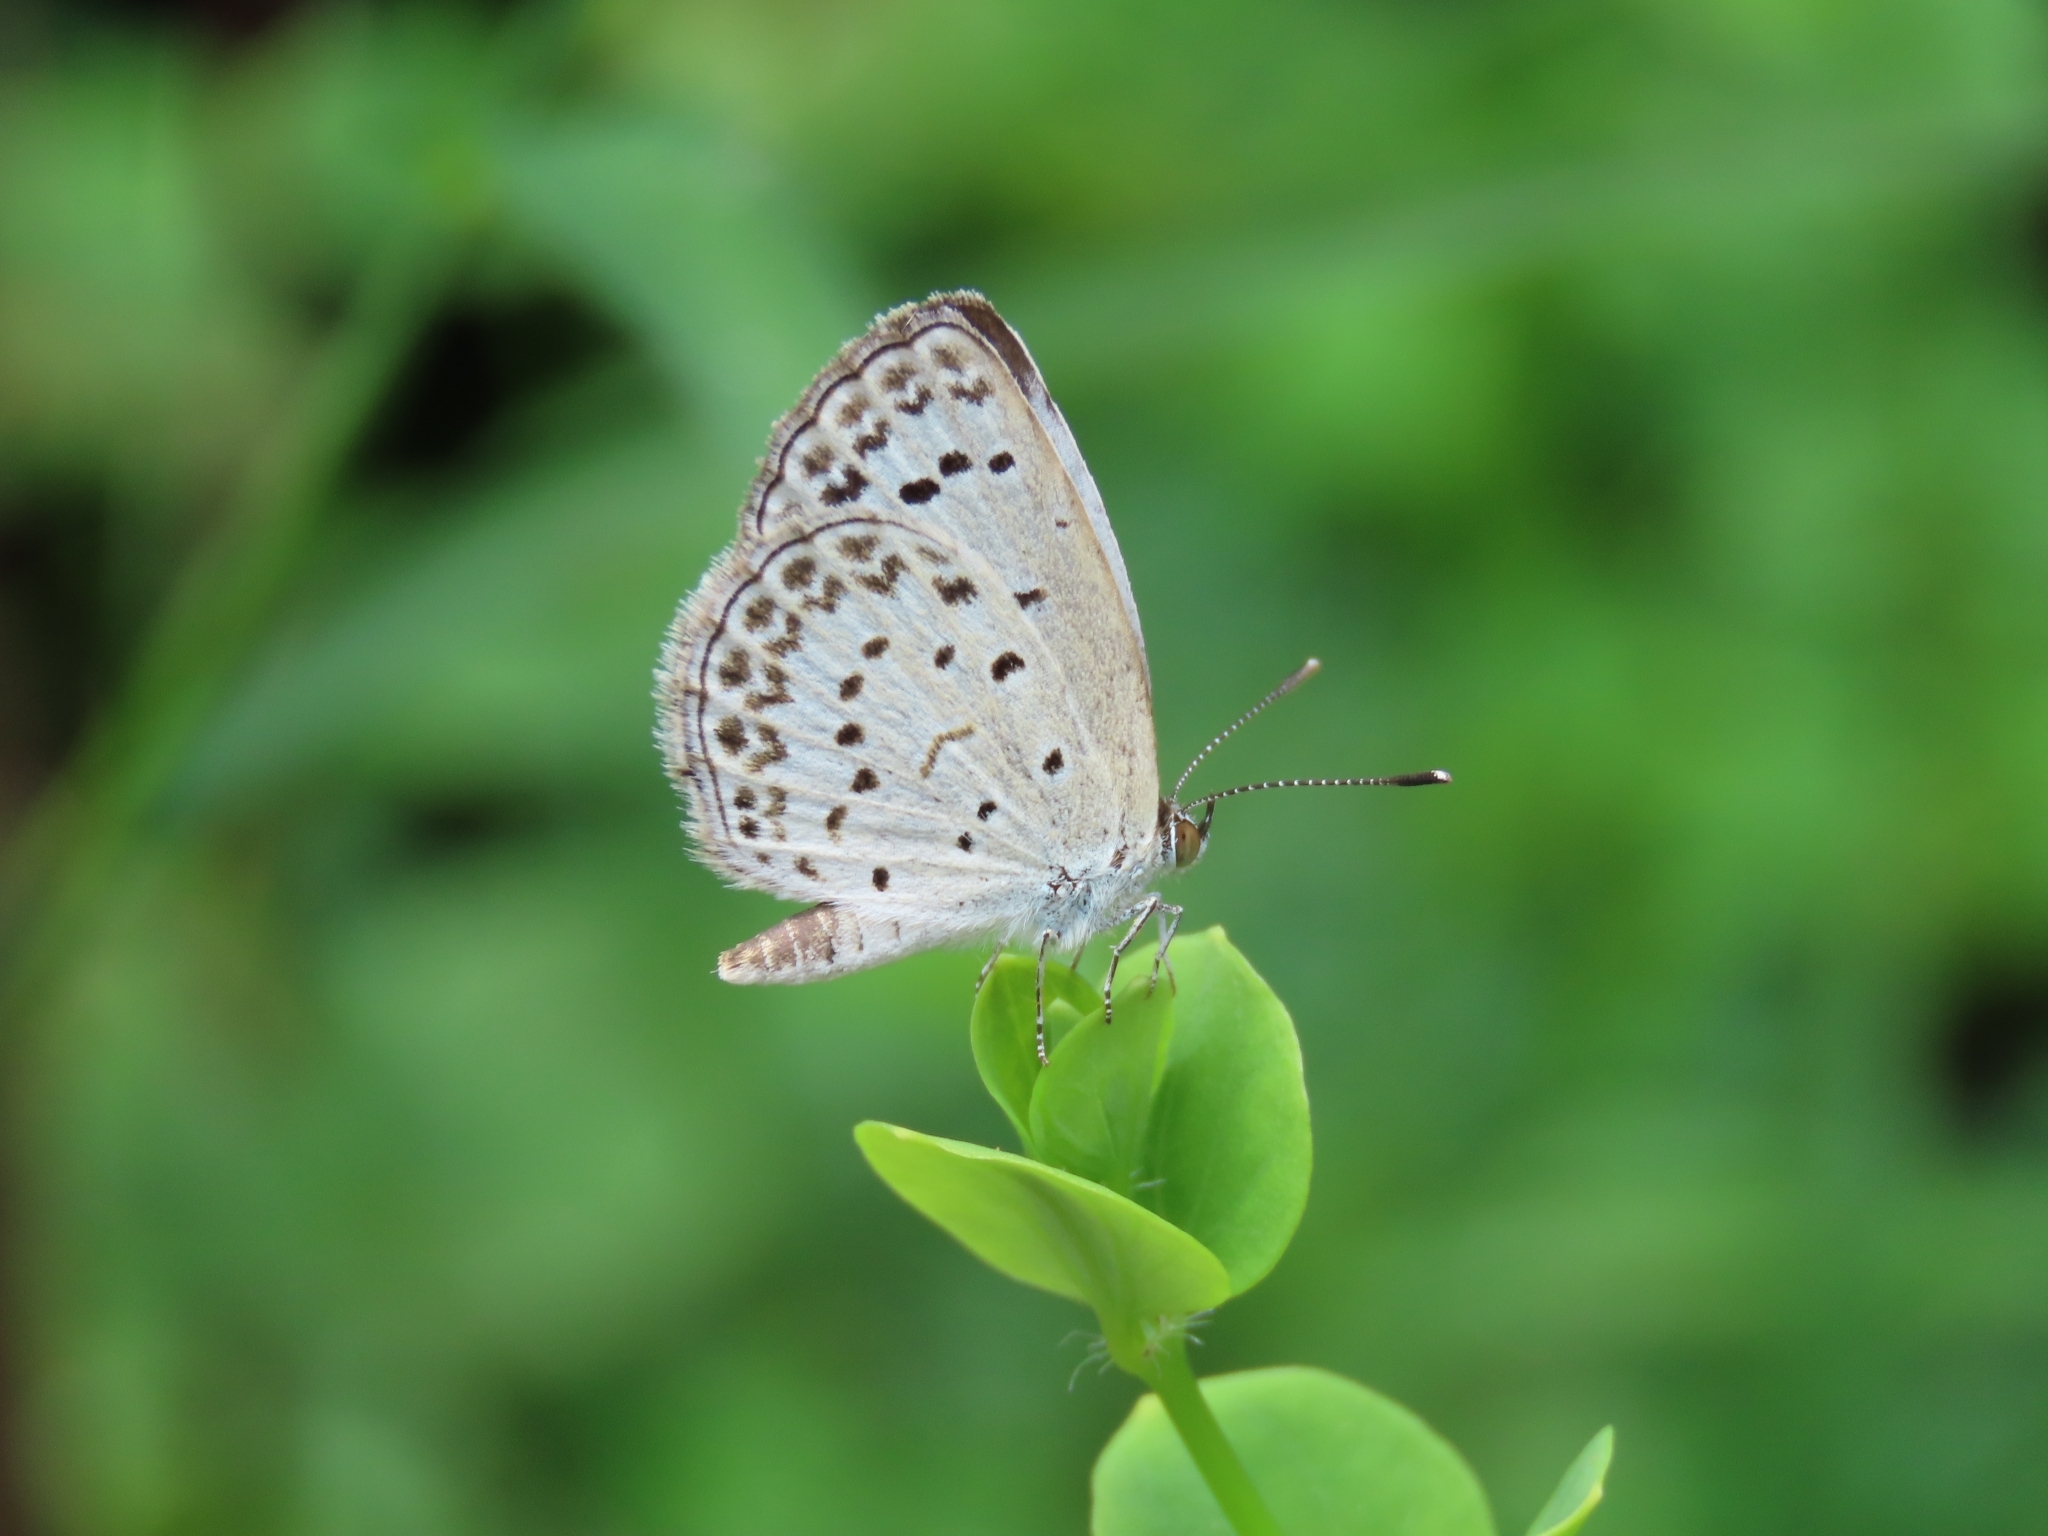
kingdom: Animalia
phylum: Arthropoda
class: Insecta
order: Lepidoptera
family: Lycaenidae
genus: Pseudozizeeria
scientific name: Pseudozizeeria maha
